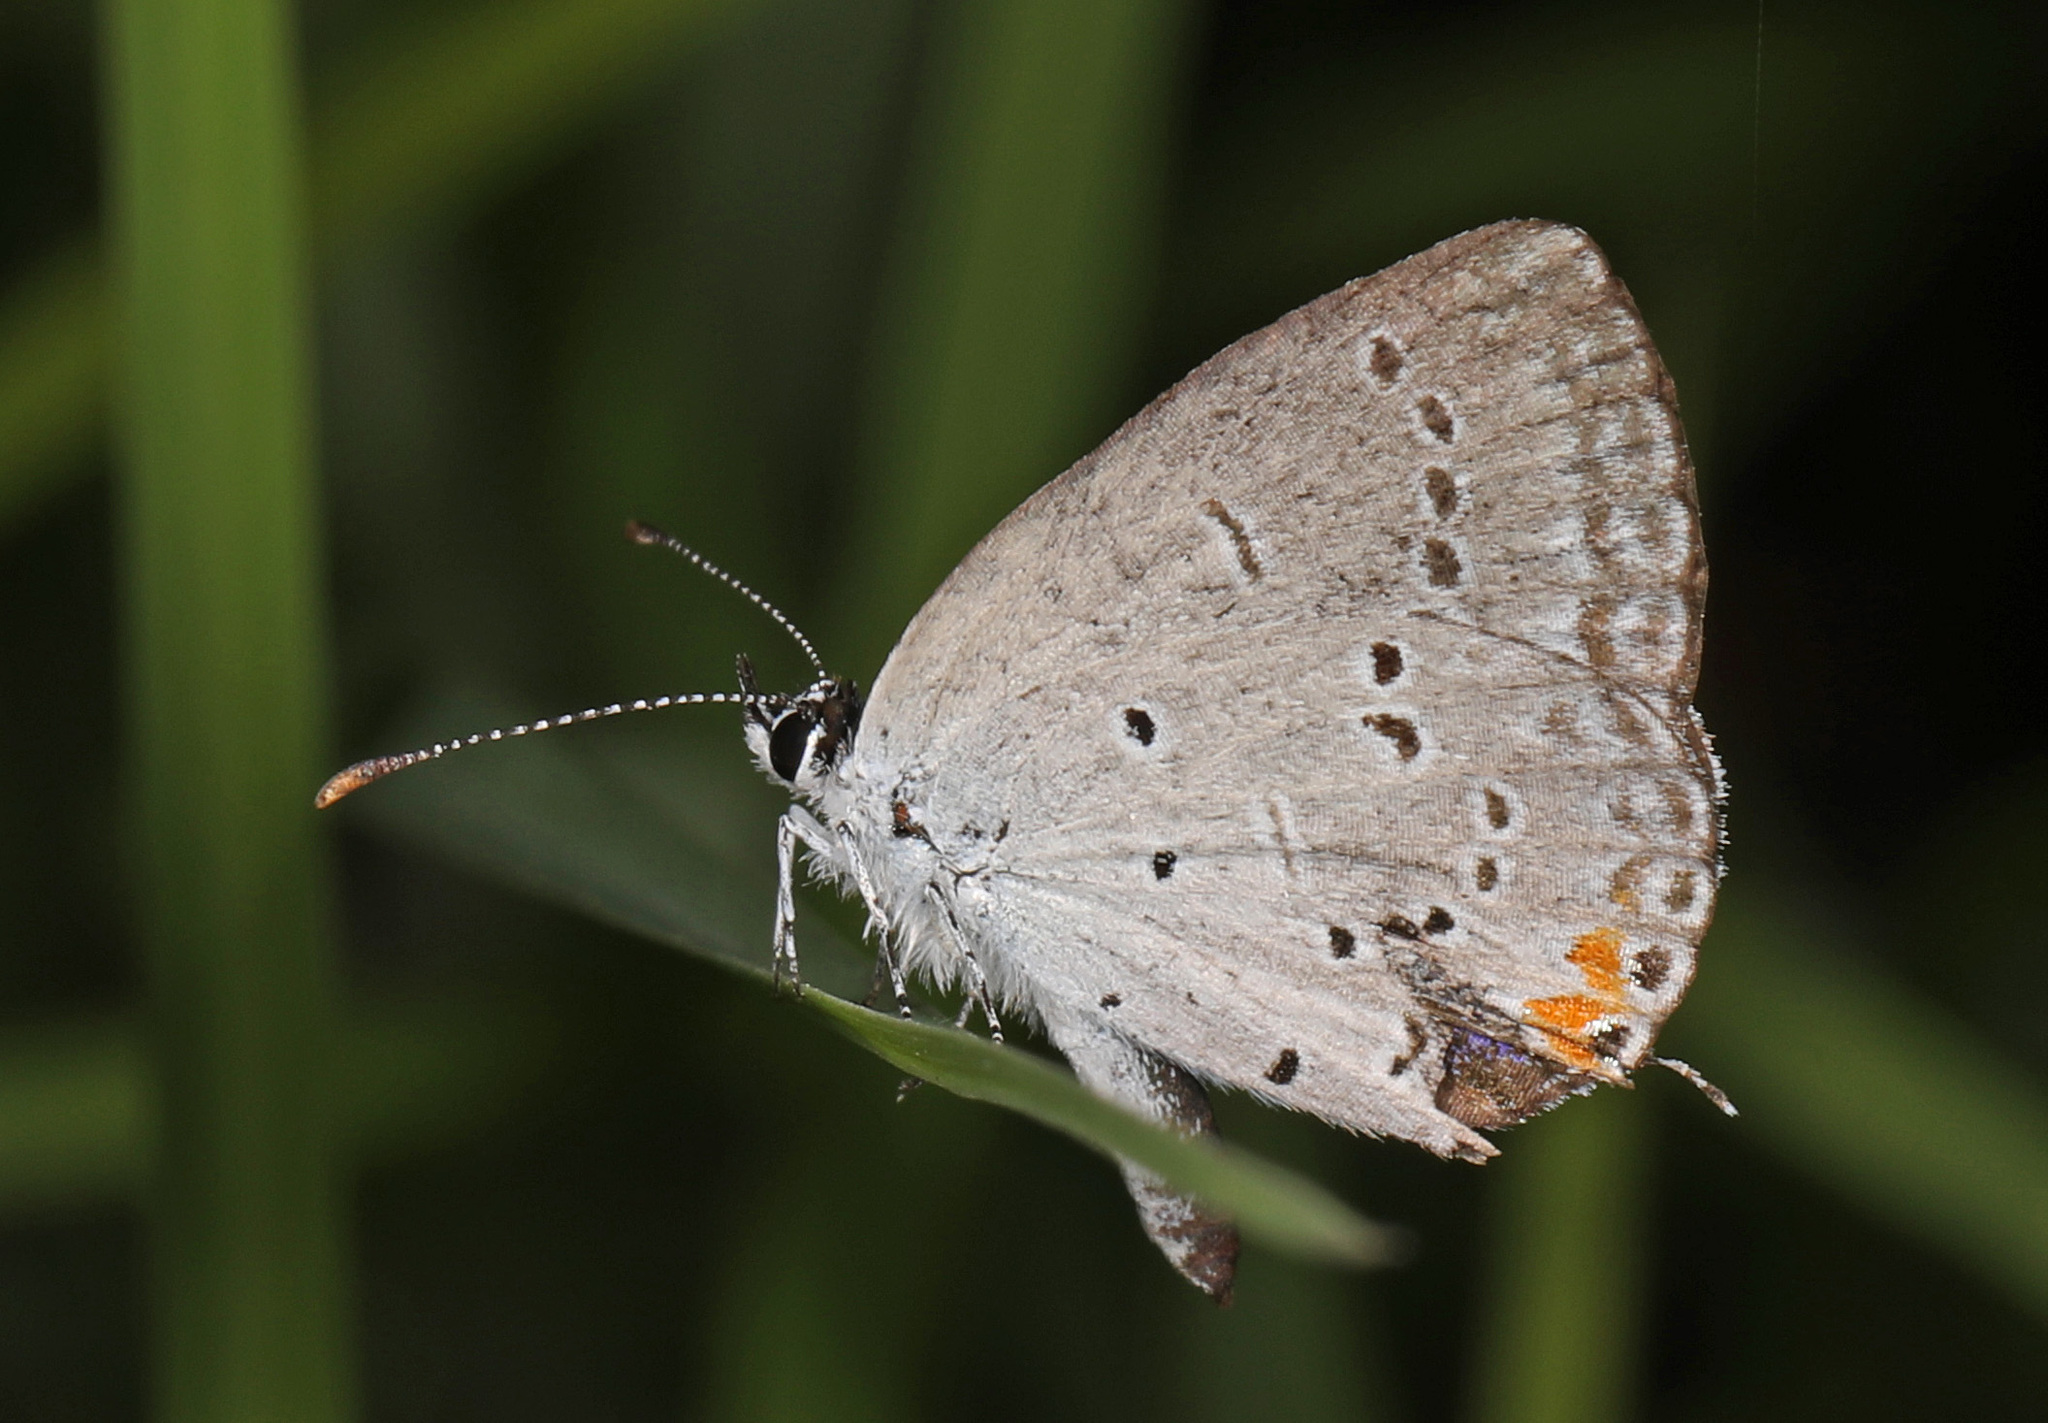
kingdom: Animalia
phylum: Arthropoda
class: Insecta
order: Lepidoptera
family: Lycaenidae
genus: Elkalyce
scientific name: Elkalyce comyntas
